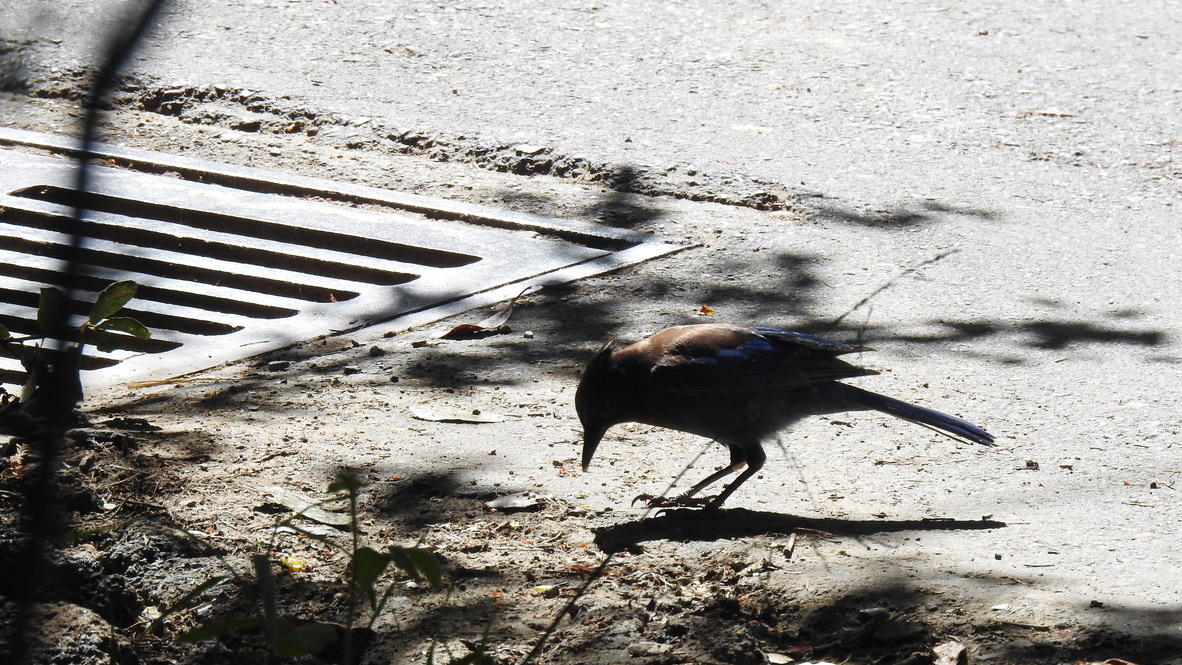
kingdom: Animalia
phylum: Chordata
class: Aves
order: Passeriformes
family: Corvidae
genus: Cyanocitta
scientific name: Cyanocitta stelleri
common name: Steller's jay
